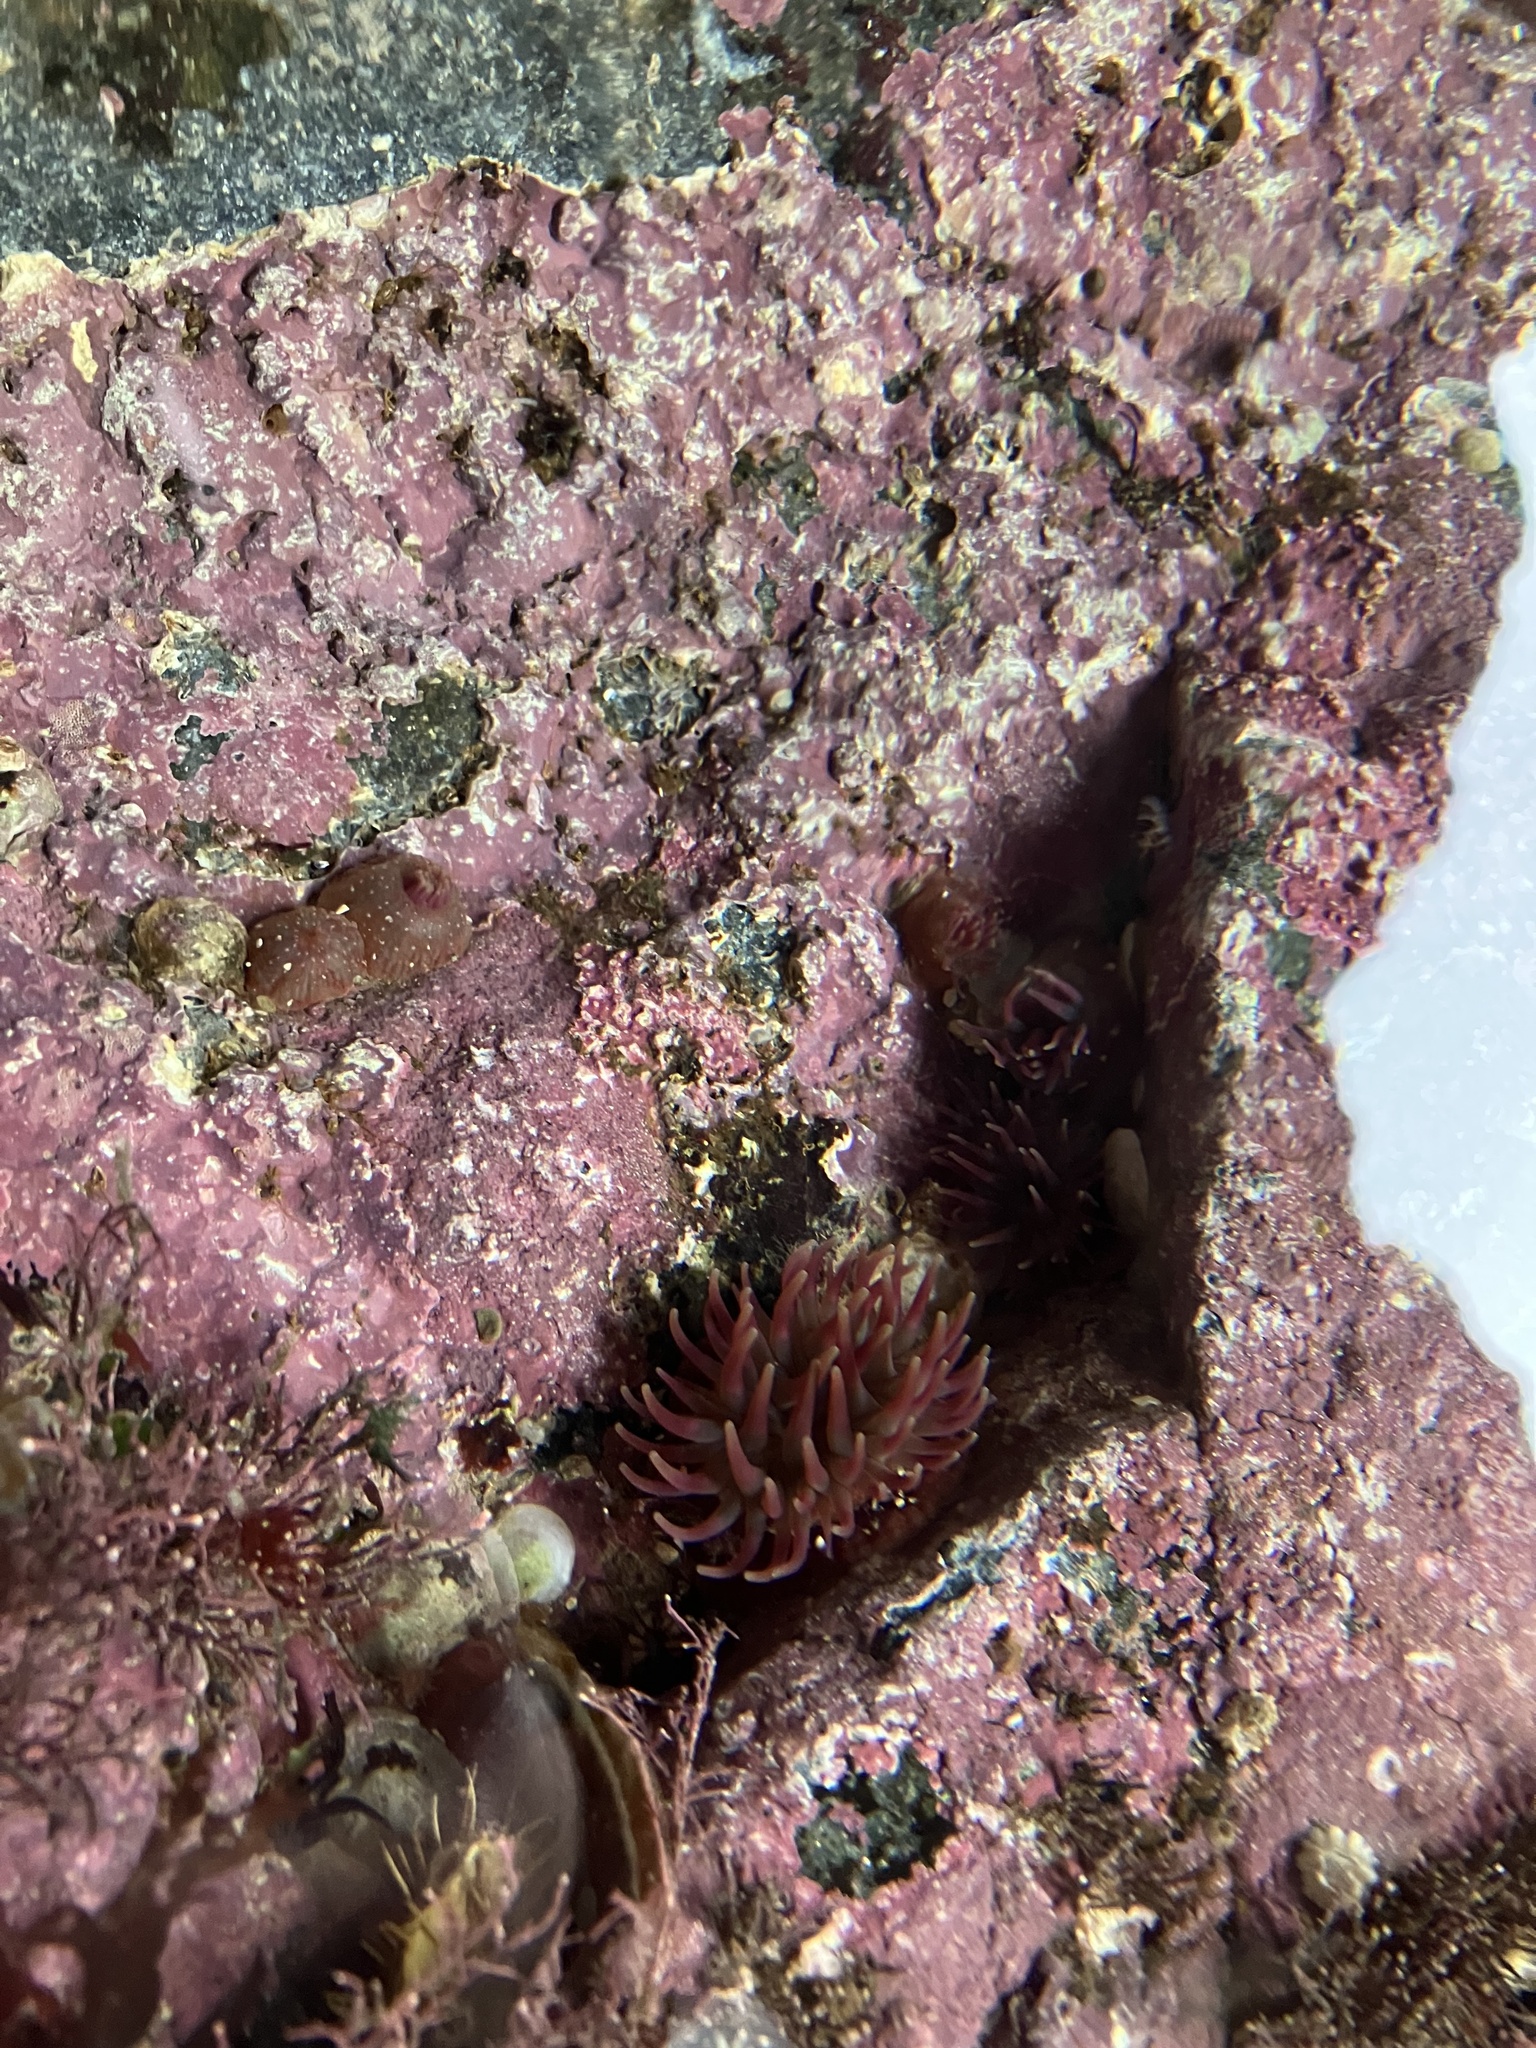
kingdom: Animalia
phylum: Cnidaria
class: Anthozoa
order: Actiniaria
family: Actiniidae
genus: Urticina
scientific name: Urticina crassicornis
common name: Mottled anemone
